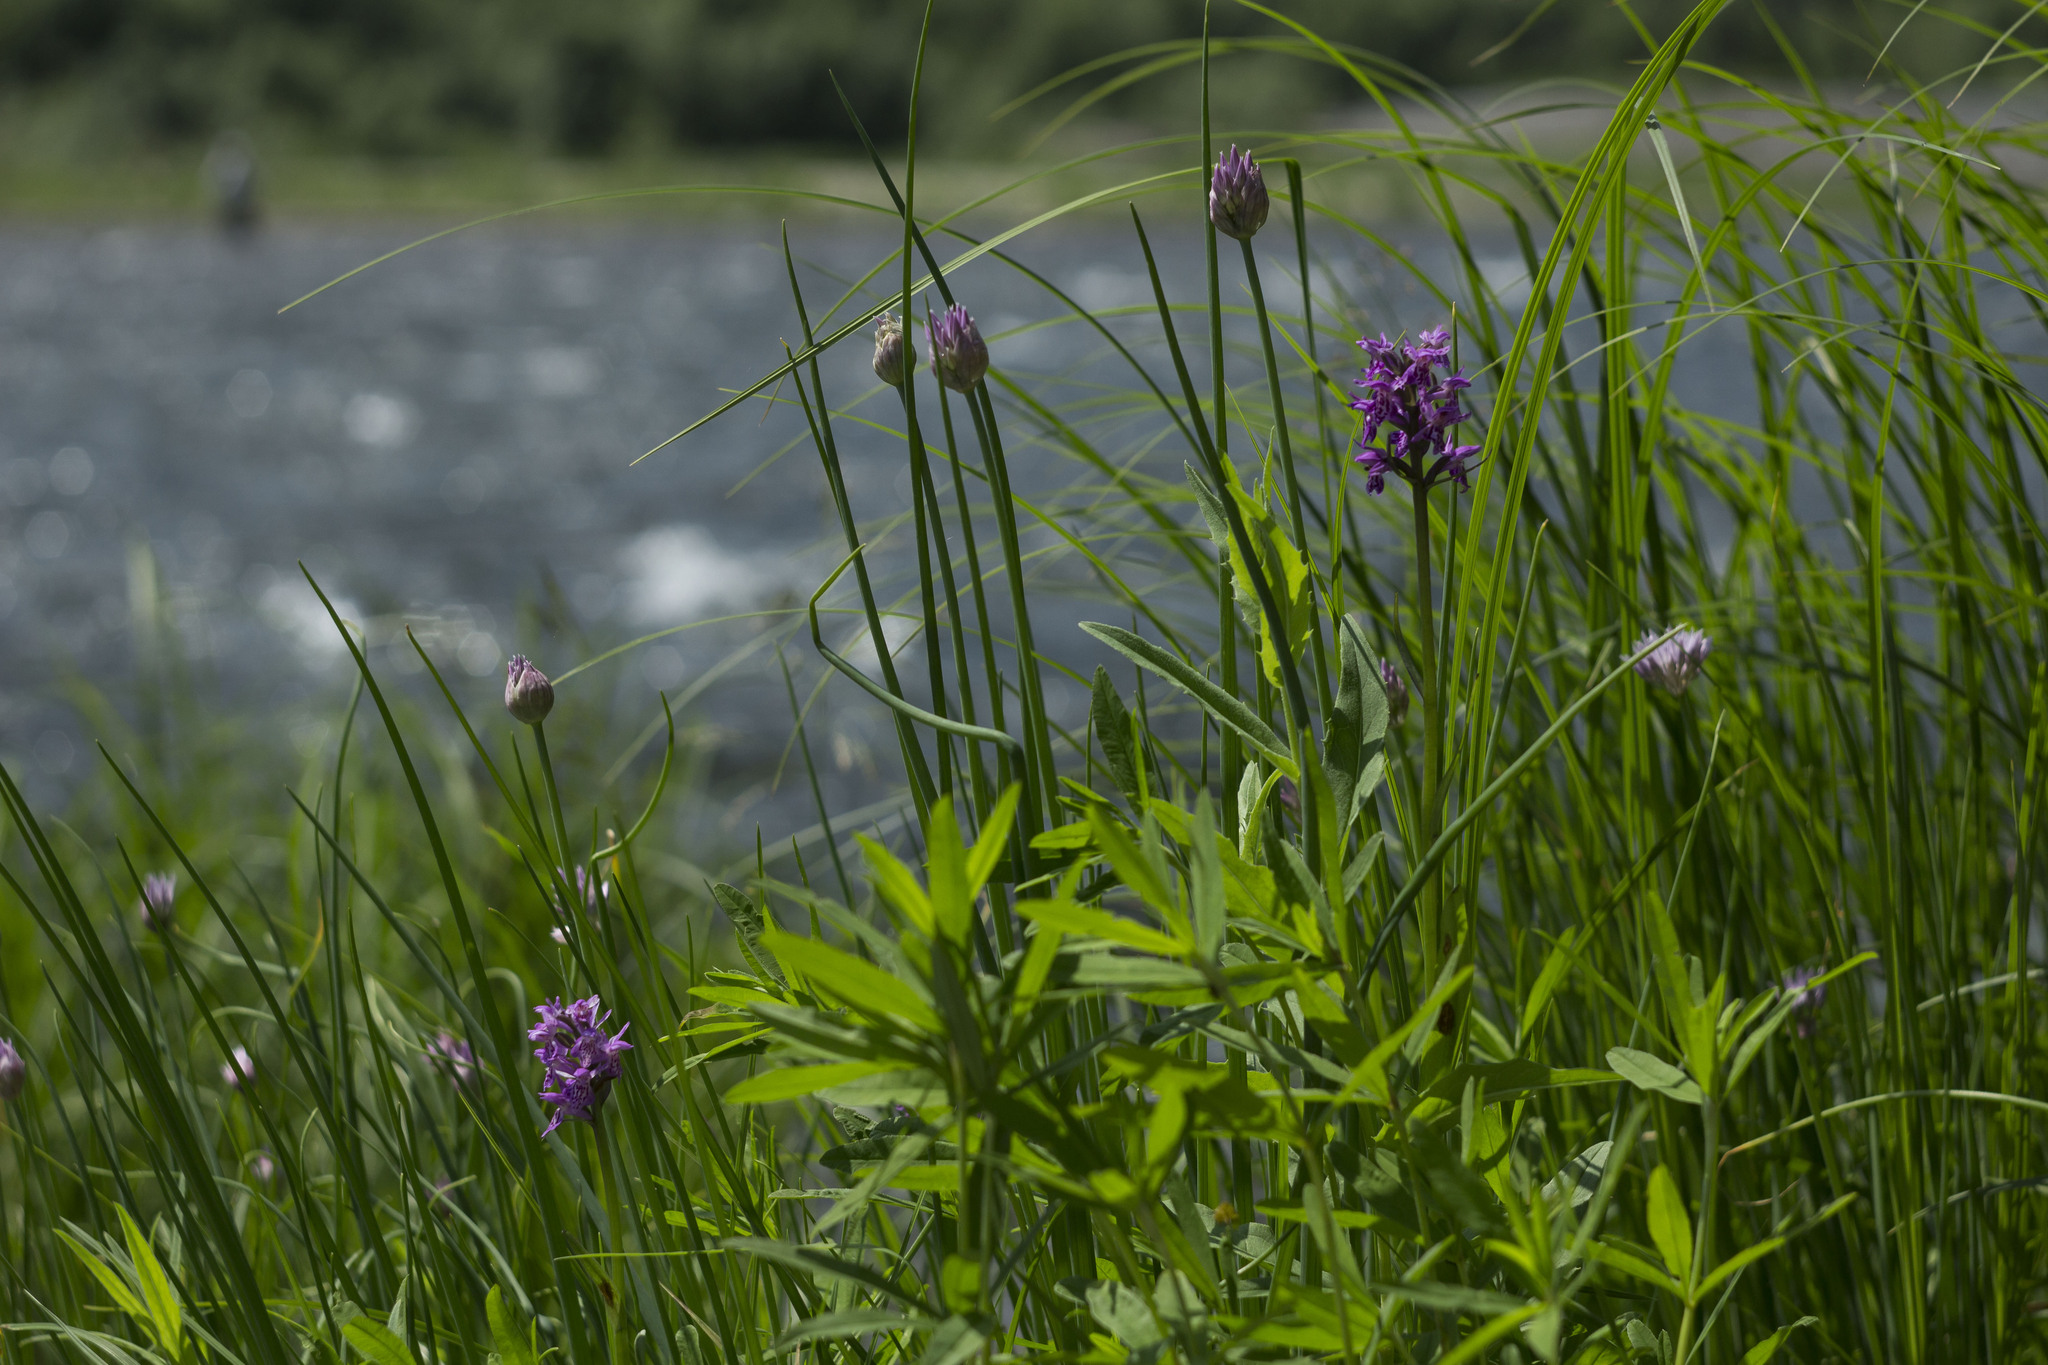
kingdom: Plantae
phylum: Tracheophyta
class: Liliopsida
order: Asparagales
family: Orchidaceae
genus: Dactylorhiza
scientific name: Dactylorhiza sibirica
